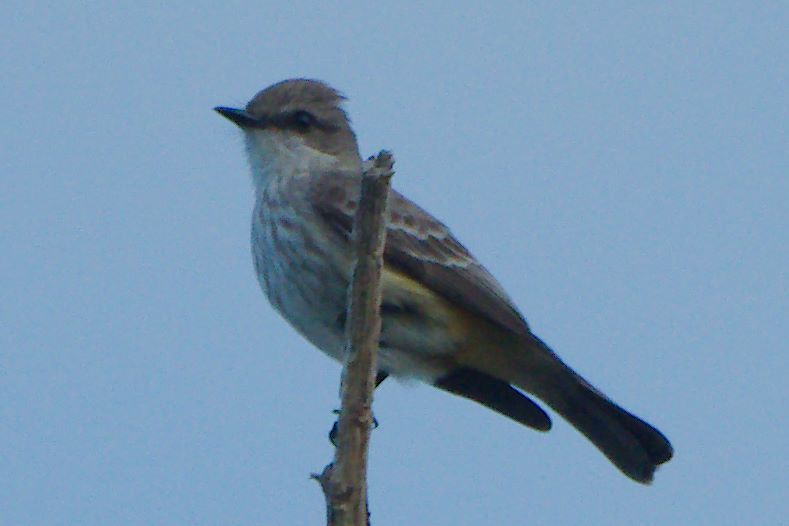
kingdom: Animalia
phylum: Chordata
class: Aves
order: Passeriformes
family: Tyrannidae
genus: Pyrocephalus
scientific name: Pyrocephalus rubinus
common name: Vermilion flycatcher
